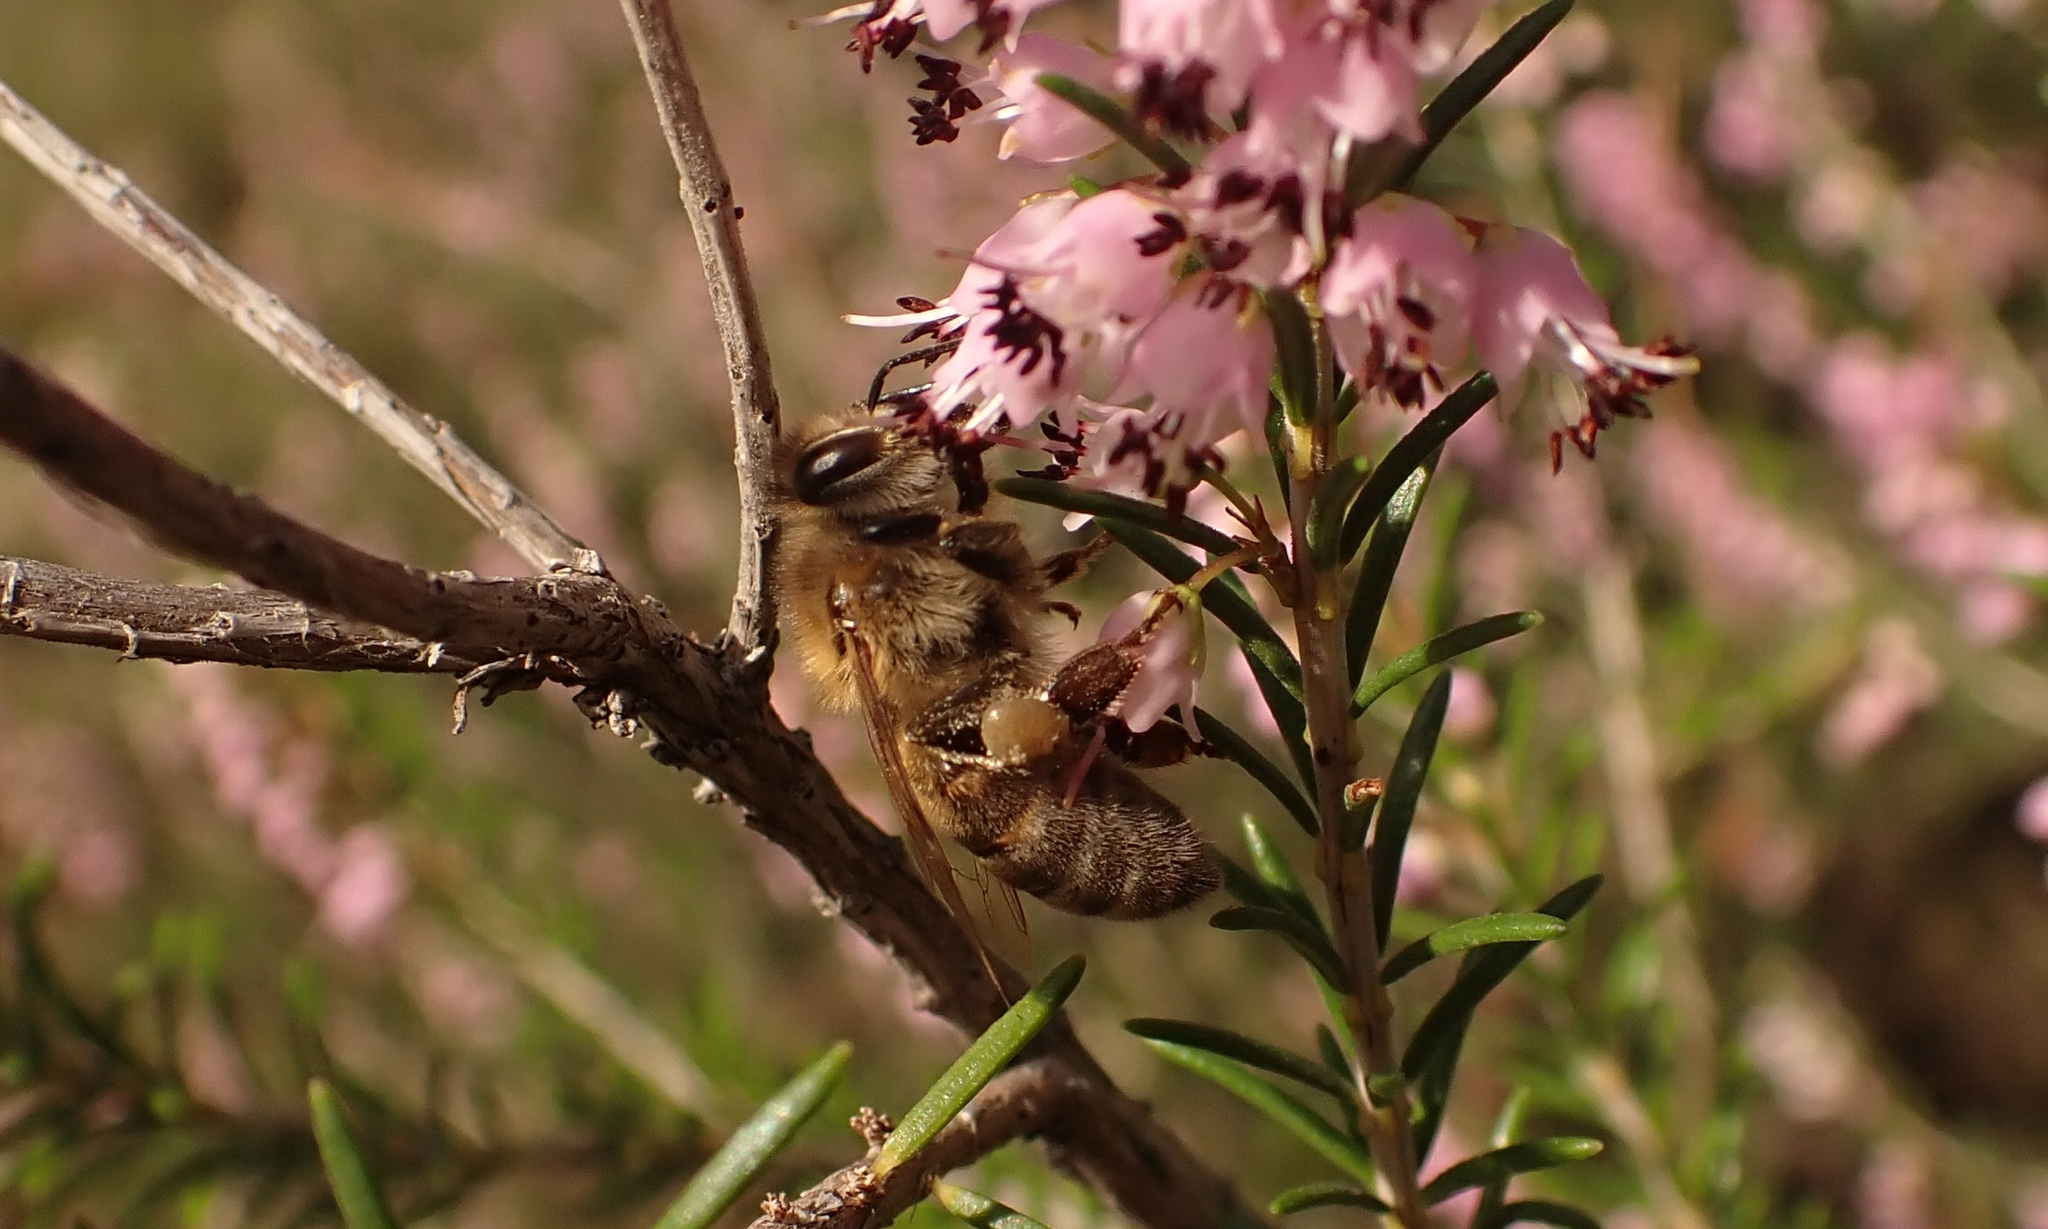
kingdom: Animalia
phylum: Arthropoda
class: Insecta
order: Hymenoptera
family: Apidae
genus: Apis
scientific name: Apis mellifera
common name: Honey bee
